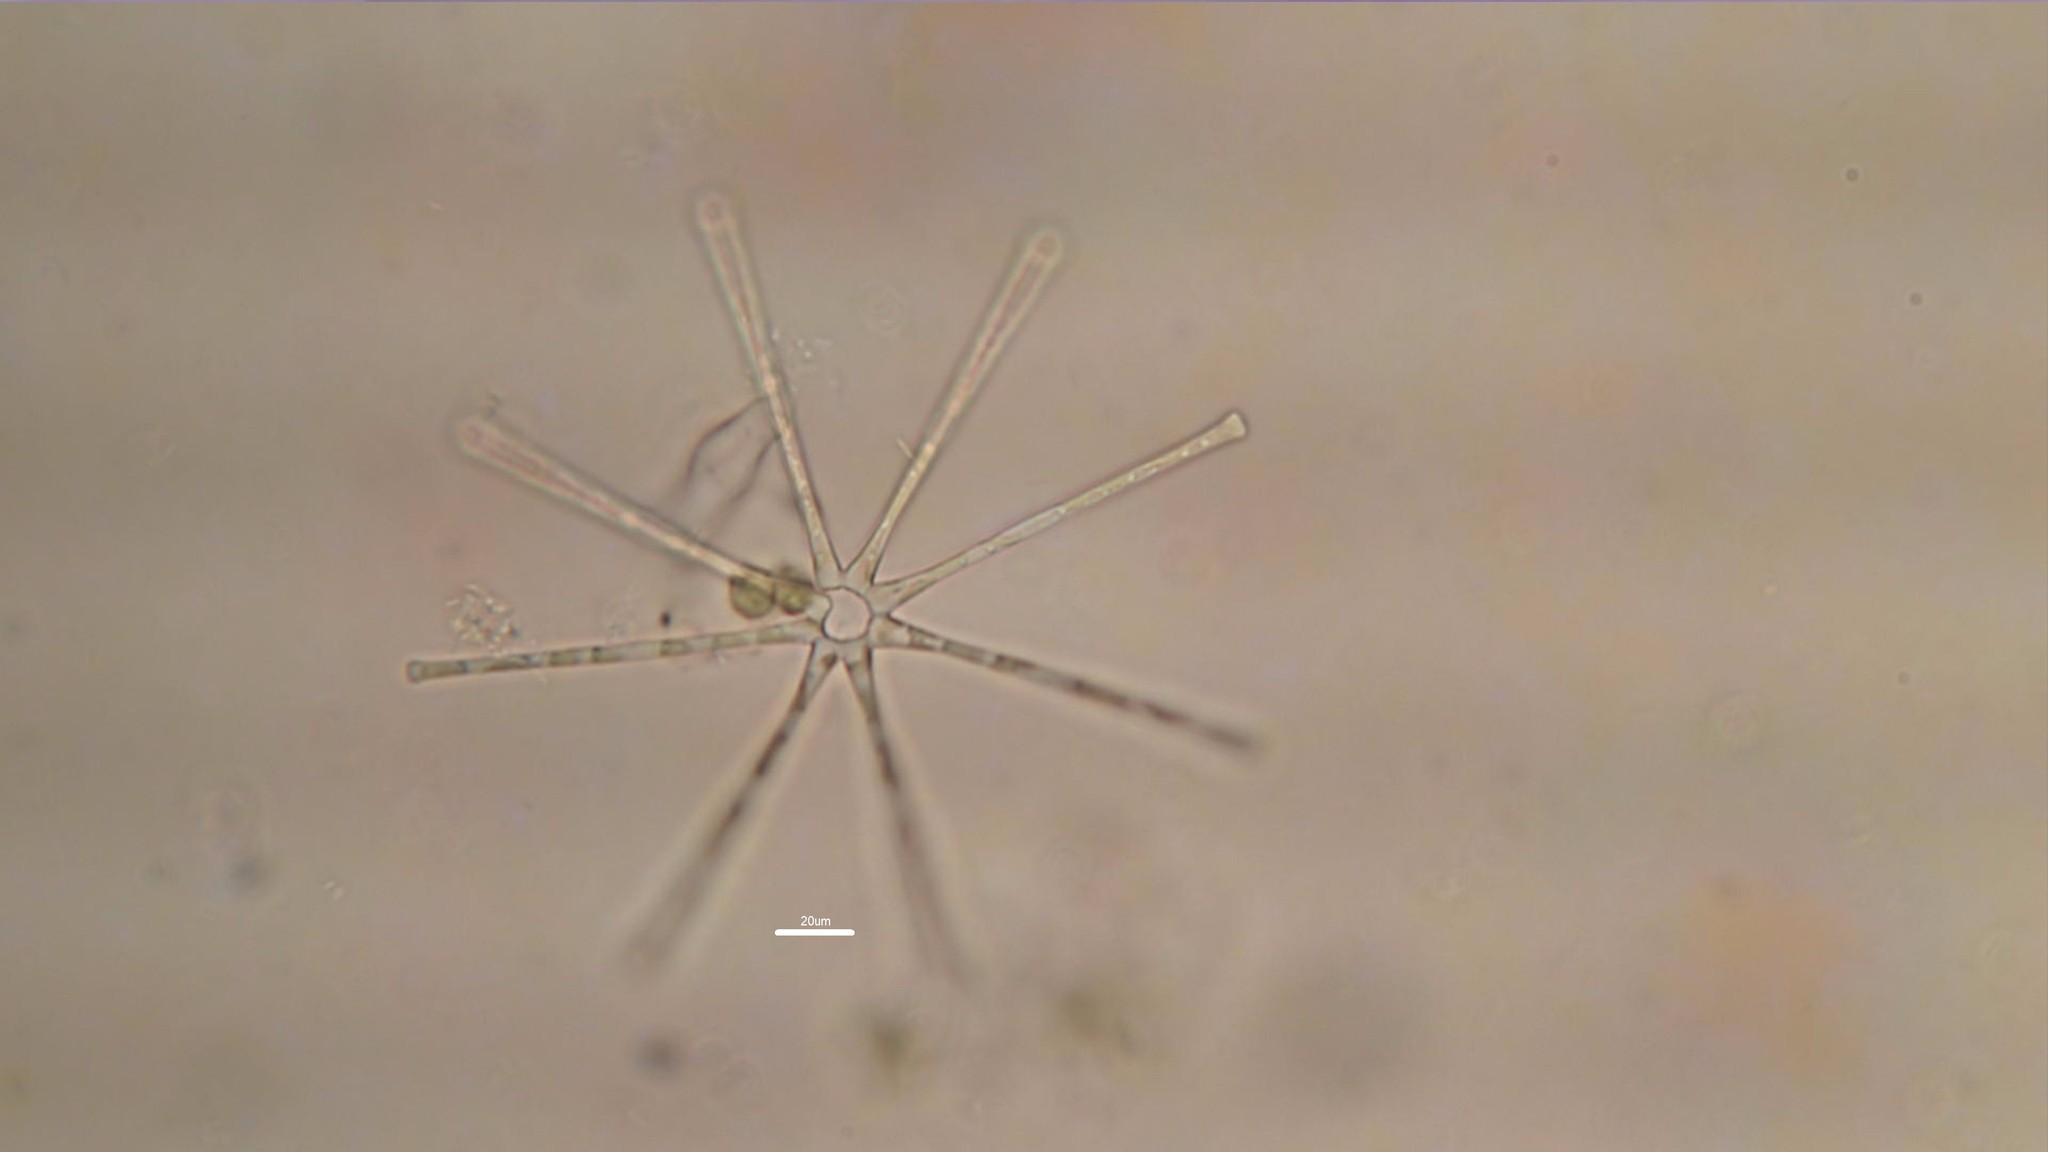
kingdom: Chromista
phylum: Ochrophyta
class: Bacillariophyceae
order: Fragilariales
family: Fragilariaceae
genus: Asterionella
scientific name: Asterionella formosa
